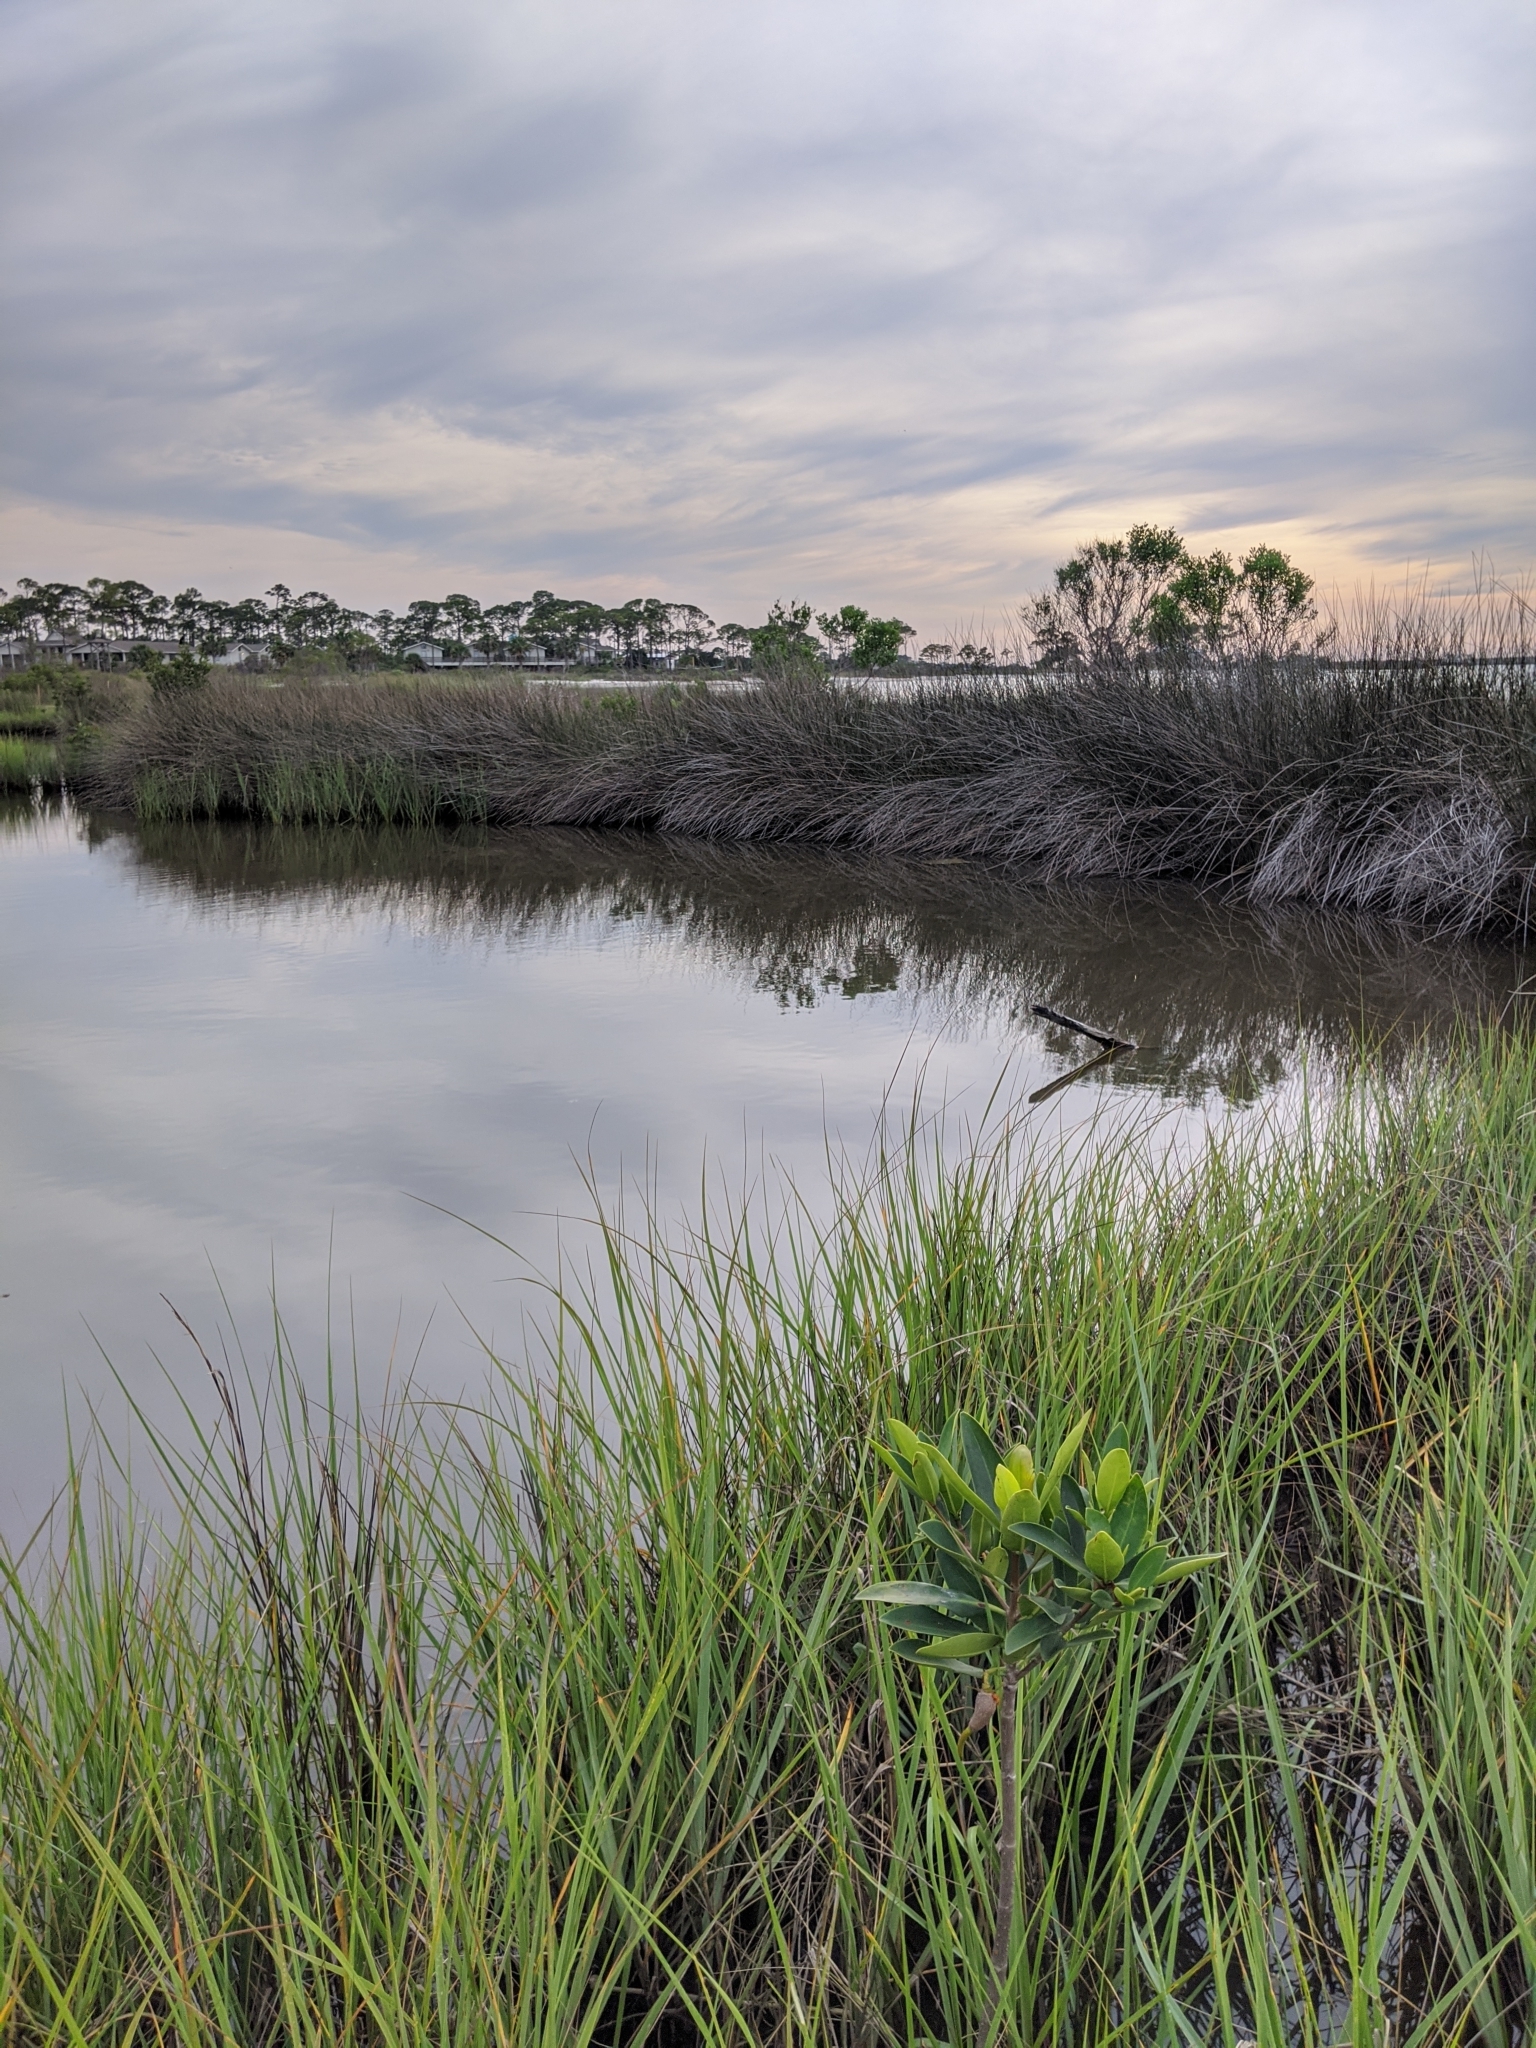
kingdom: Plantae
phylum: Tracheophyta
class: Magnoliopsida
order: Malpighiales
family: Rhizophoraceae
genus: Rhizophora
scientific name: Rhizophora mangle
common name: Red mangrove
